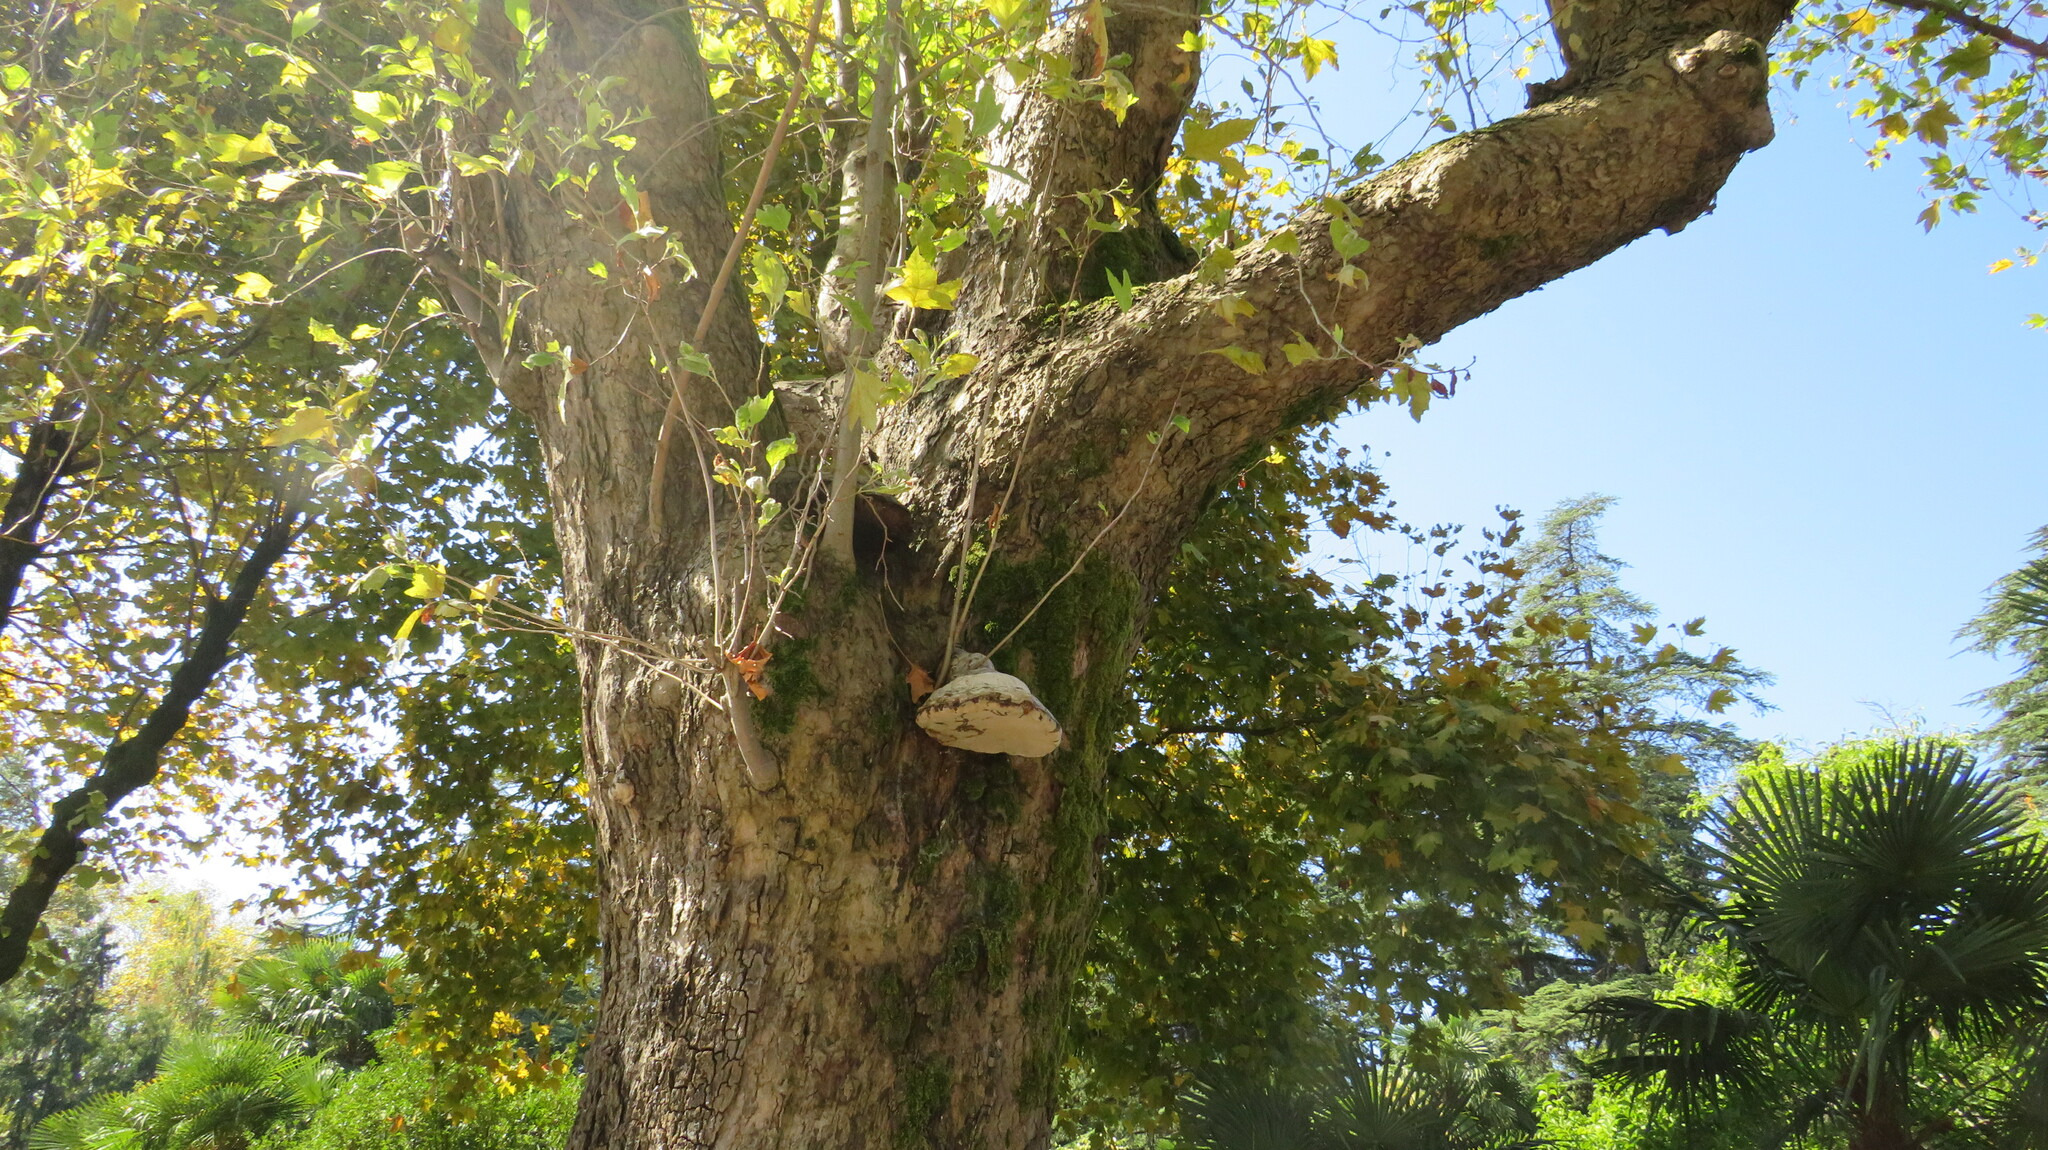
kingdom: Fungi
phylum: Basidiomycota
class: Agaricomycetes
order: Polyporales
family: Polyporaceae
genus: Fomes
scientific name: Fomes fomentarius
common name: Hoof fungus
